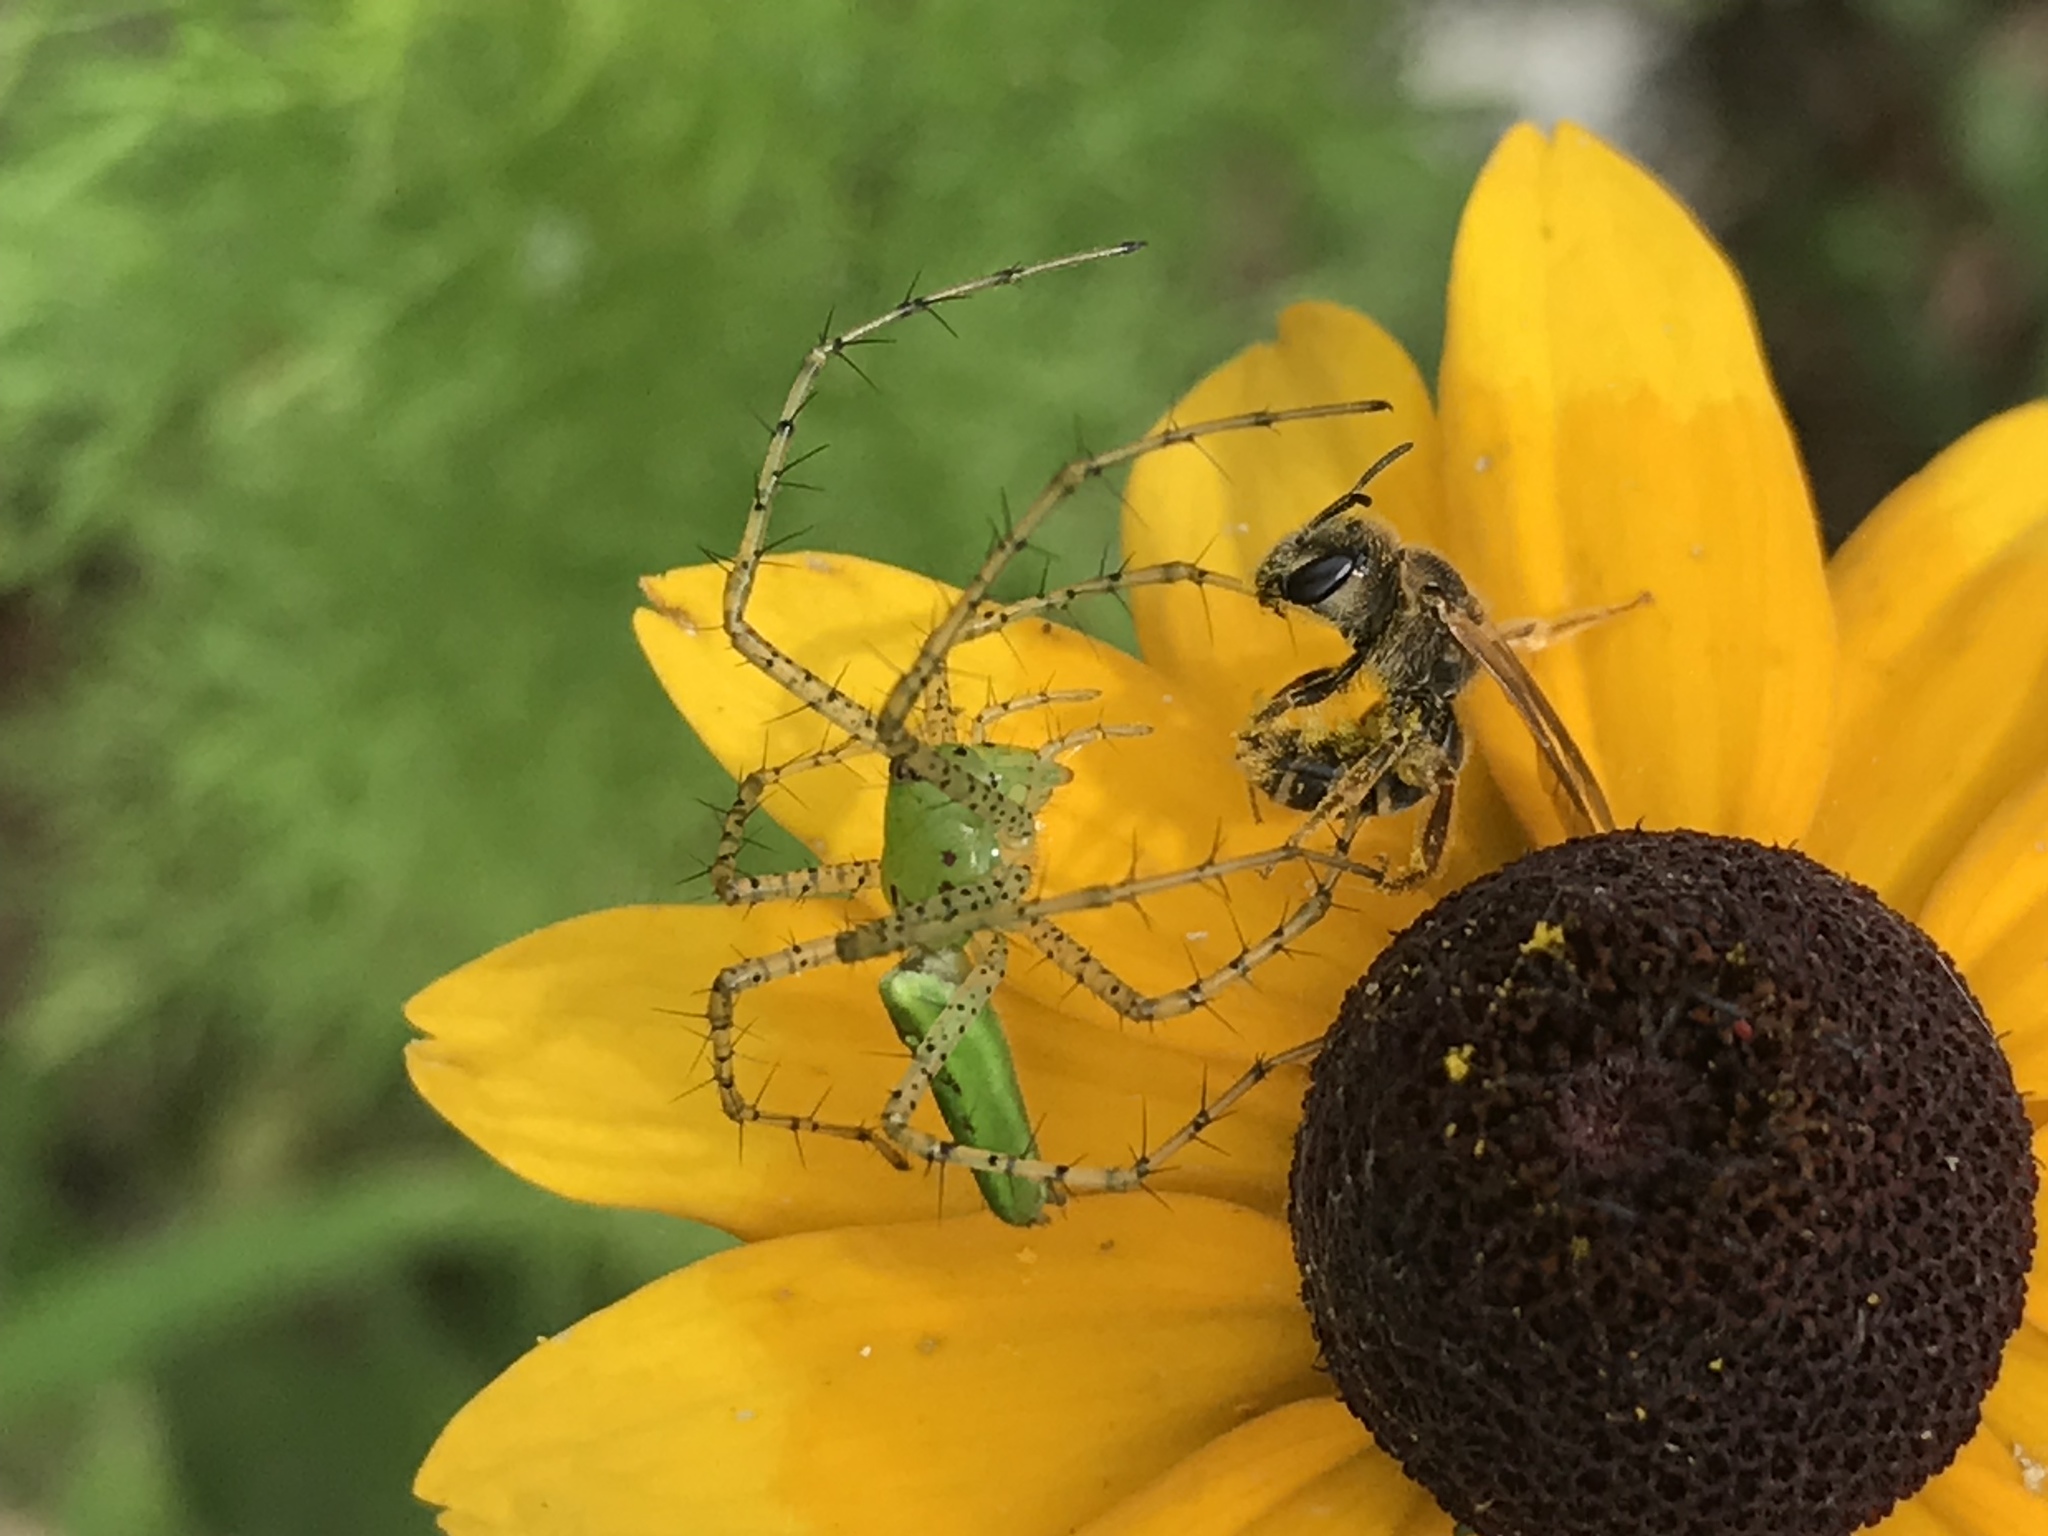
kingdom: Animalia
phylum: Arthropoda
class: Arachnida
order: Araneae
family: Oxyopidae
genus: Peucetia
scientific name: Peucetia viridans
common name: Lynx spiders
